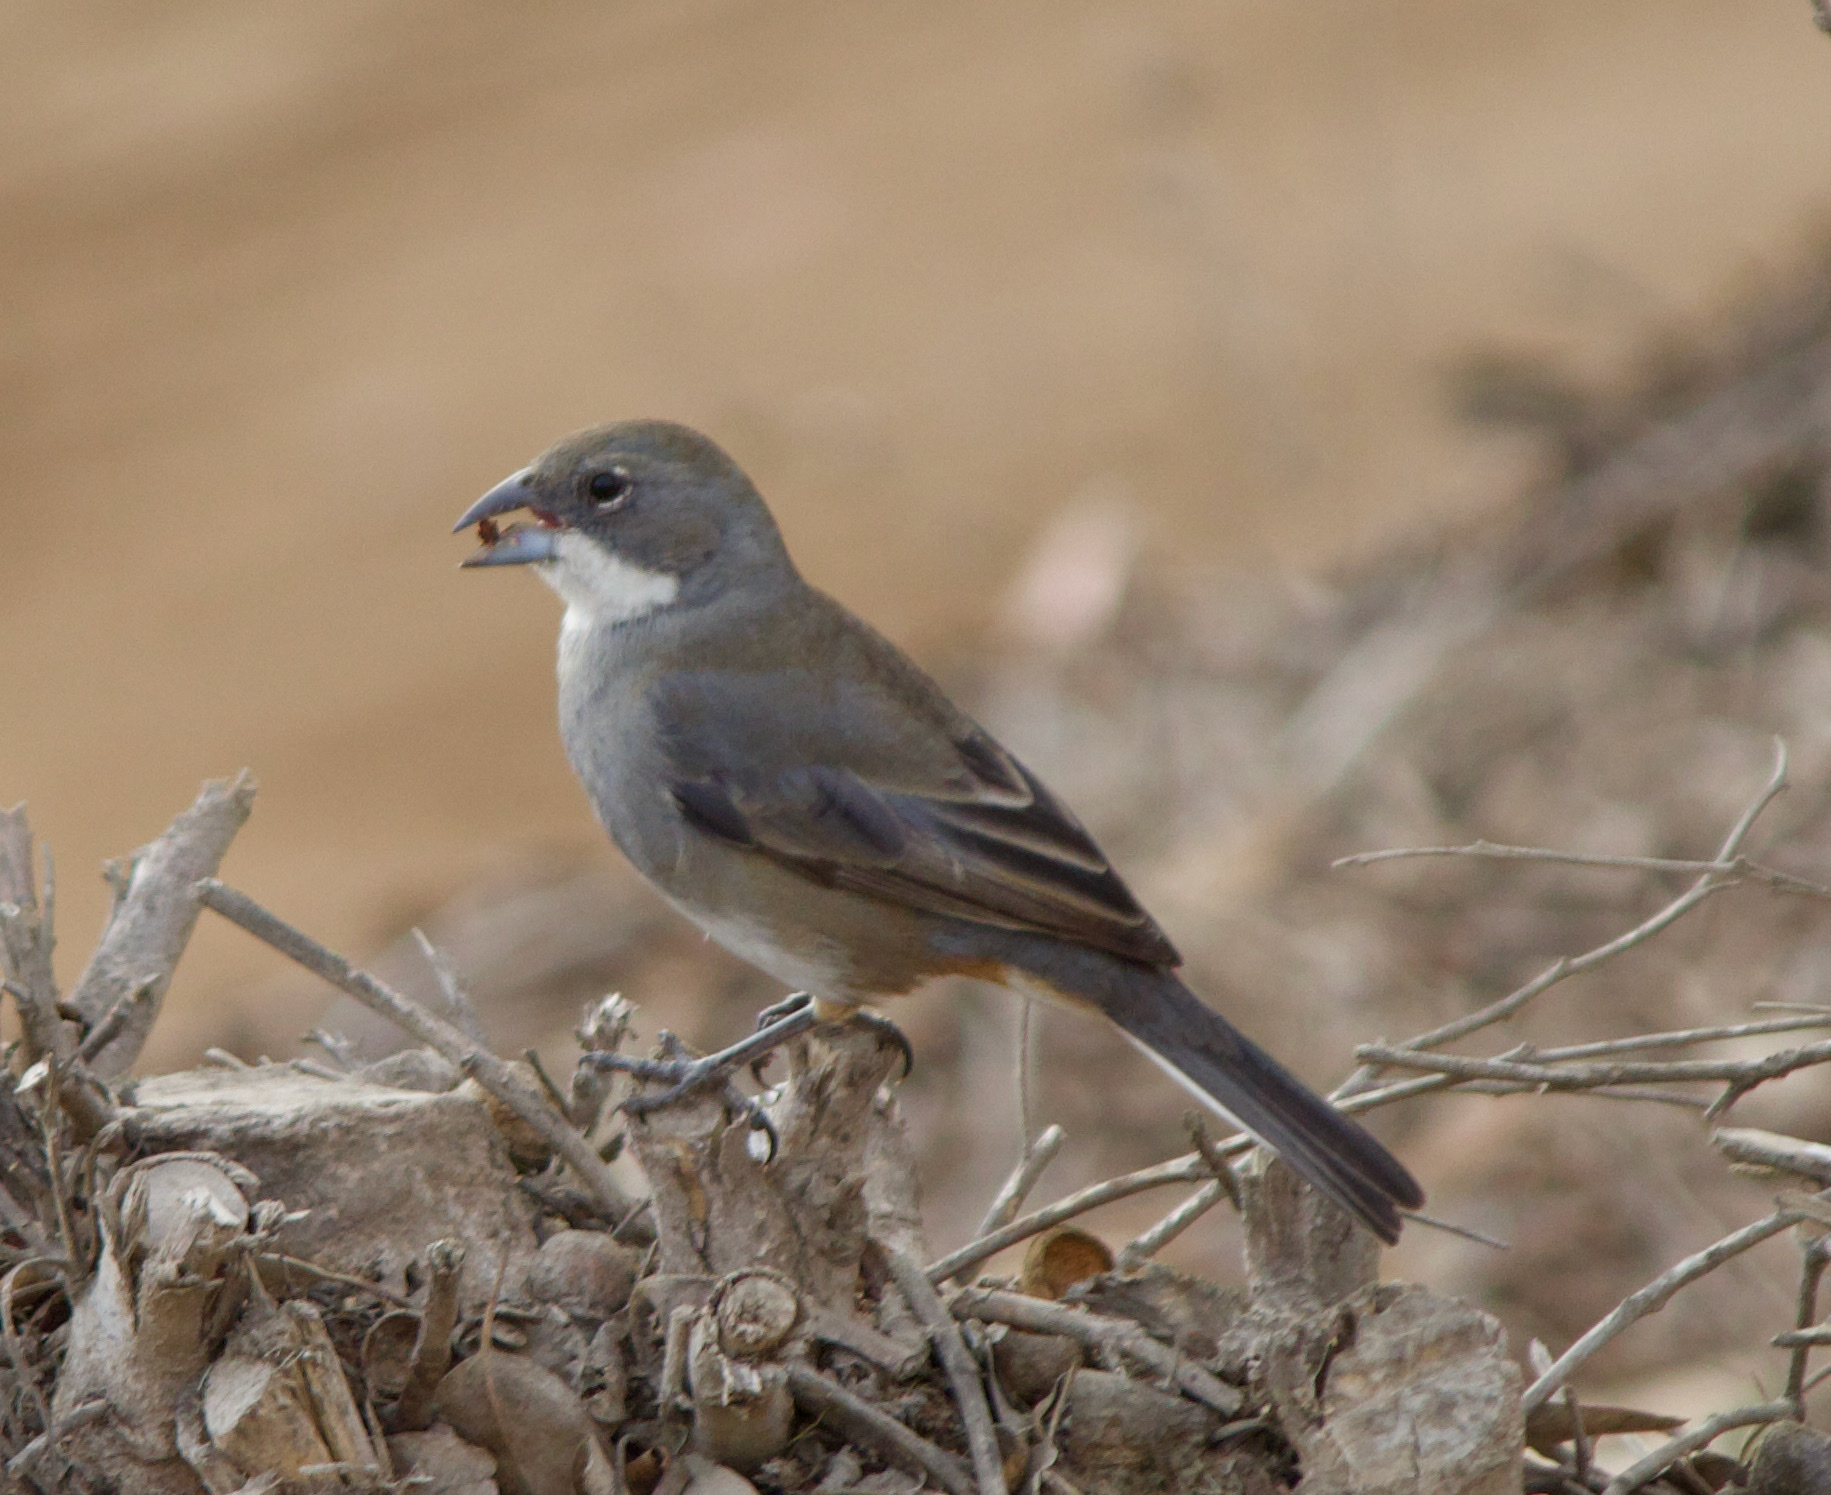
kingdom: Animalia
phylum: Chordata
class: Aves
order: Passeriformes
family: Thraupidae
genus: Diuca
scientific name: Diuca diuca
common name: Common diuca finch
